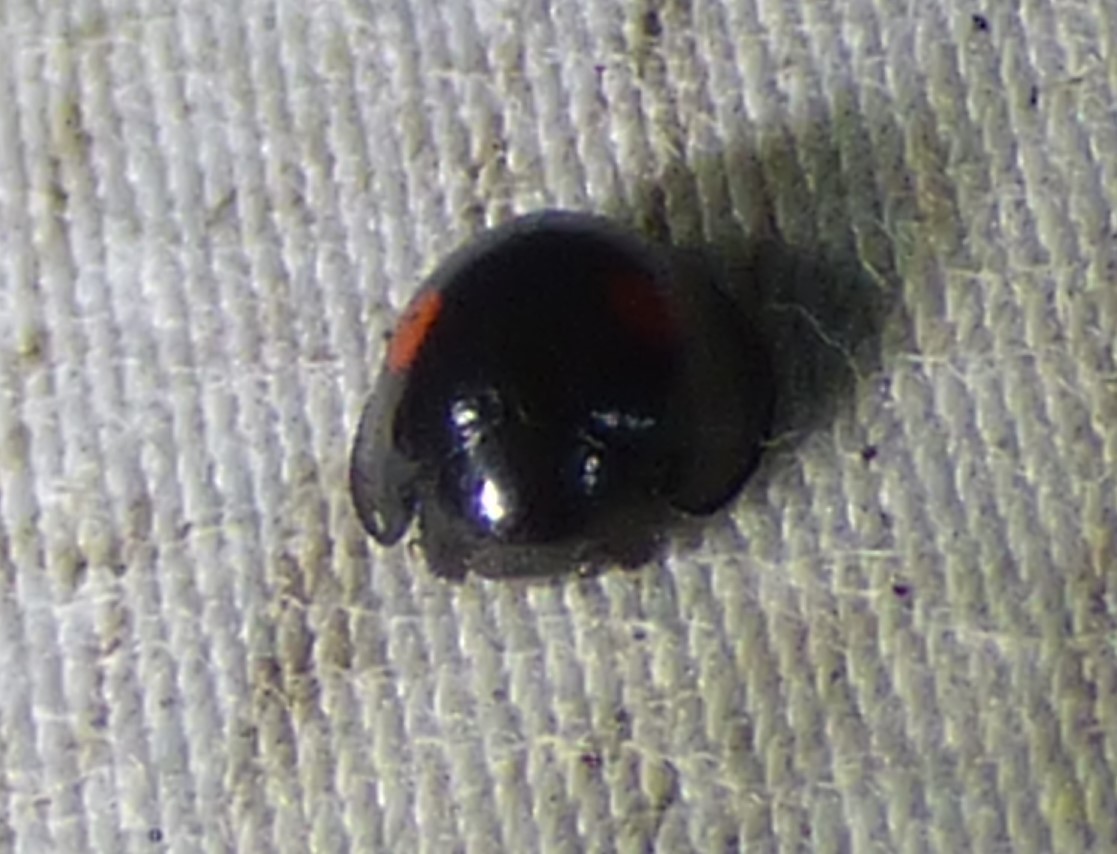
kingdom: Animalia
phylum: Arthropoda
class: Insecta
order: Coleoptera
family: Coccinellidae
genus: Chilocorus
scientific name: Chilocorus stigma
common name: Twicestabbed lady beetle
